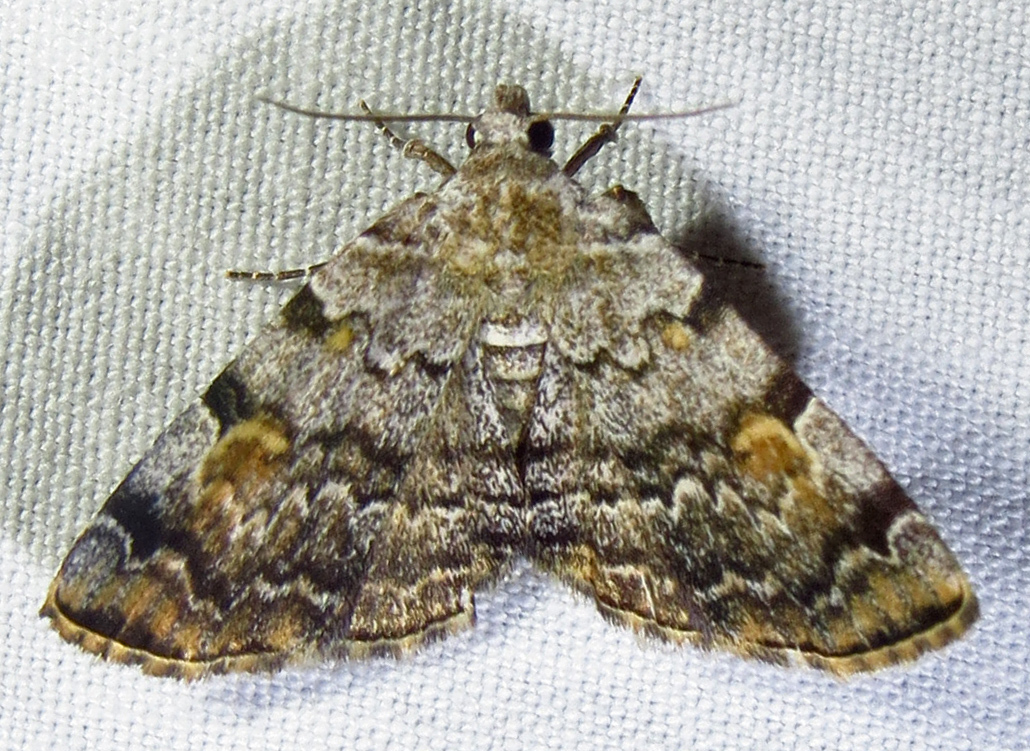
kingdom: Animalia
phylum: Arthropoda
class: Insecta
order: Lepidoptera
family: Erebidae
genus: Idia
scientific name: Idia americalis
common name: American idia moth
